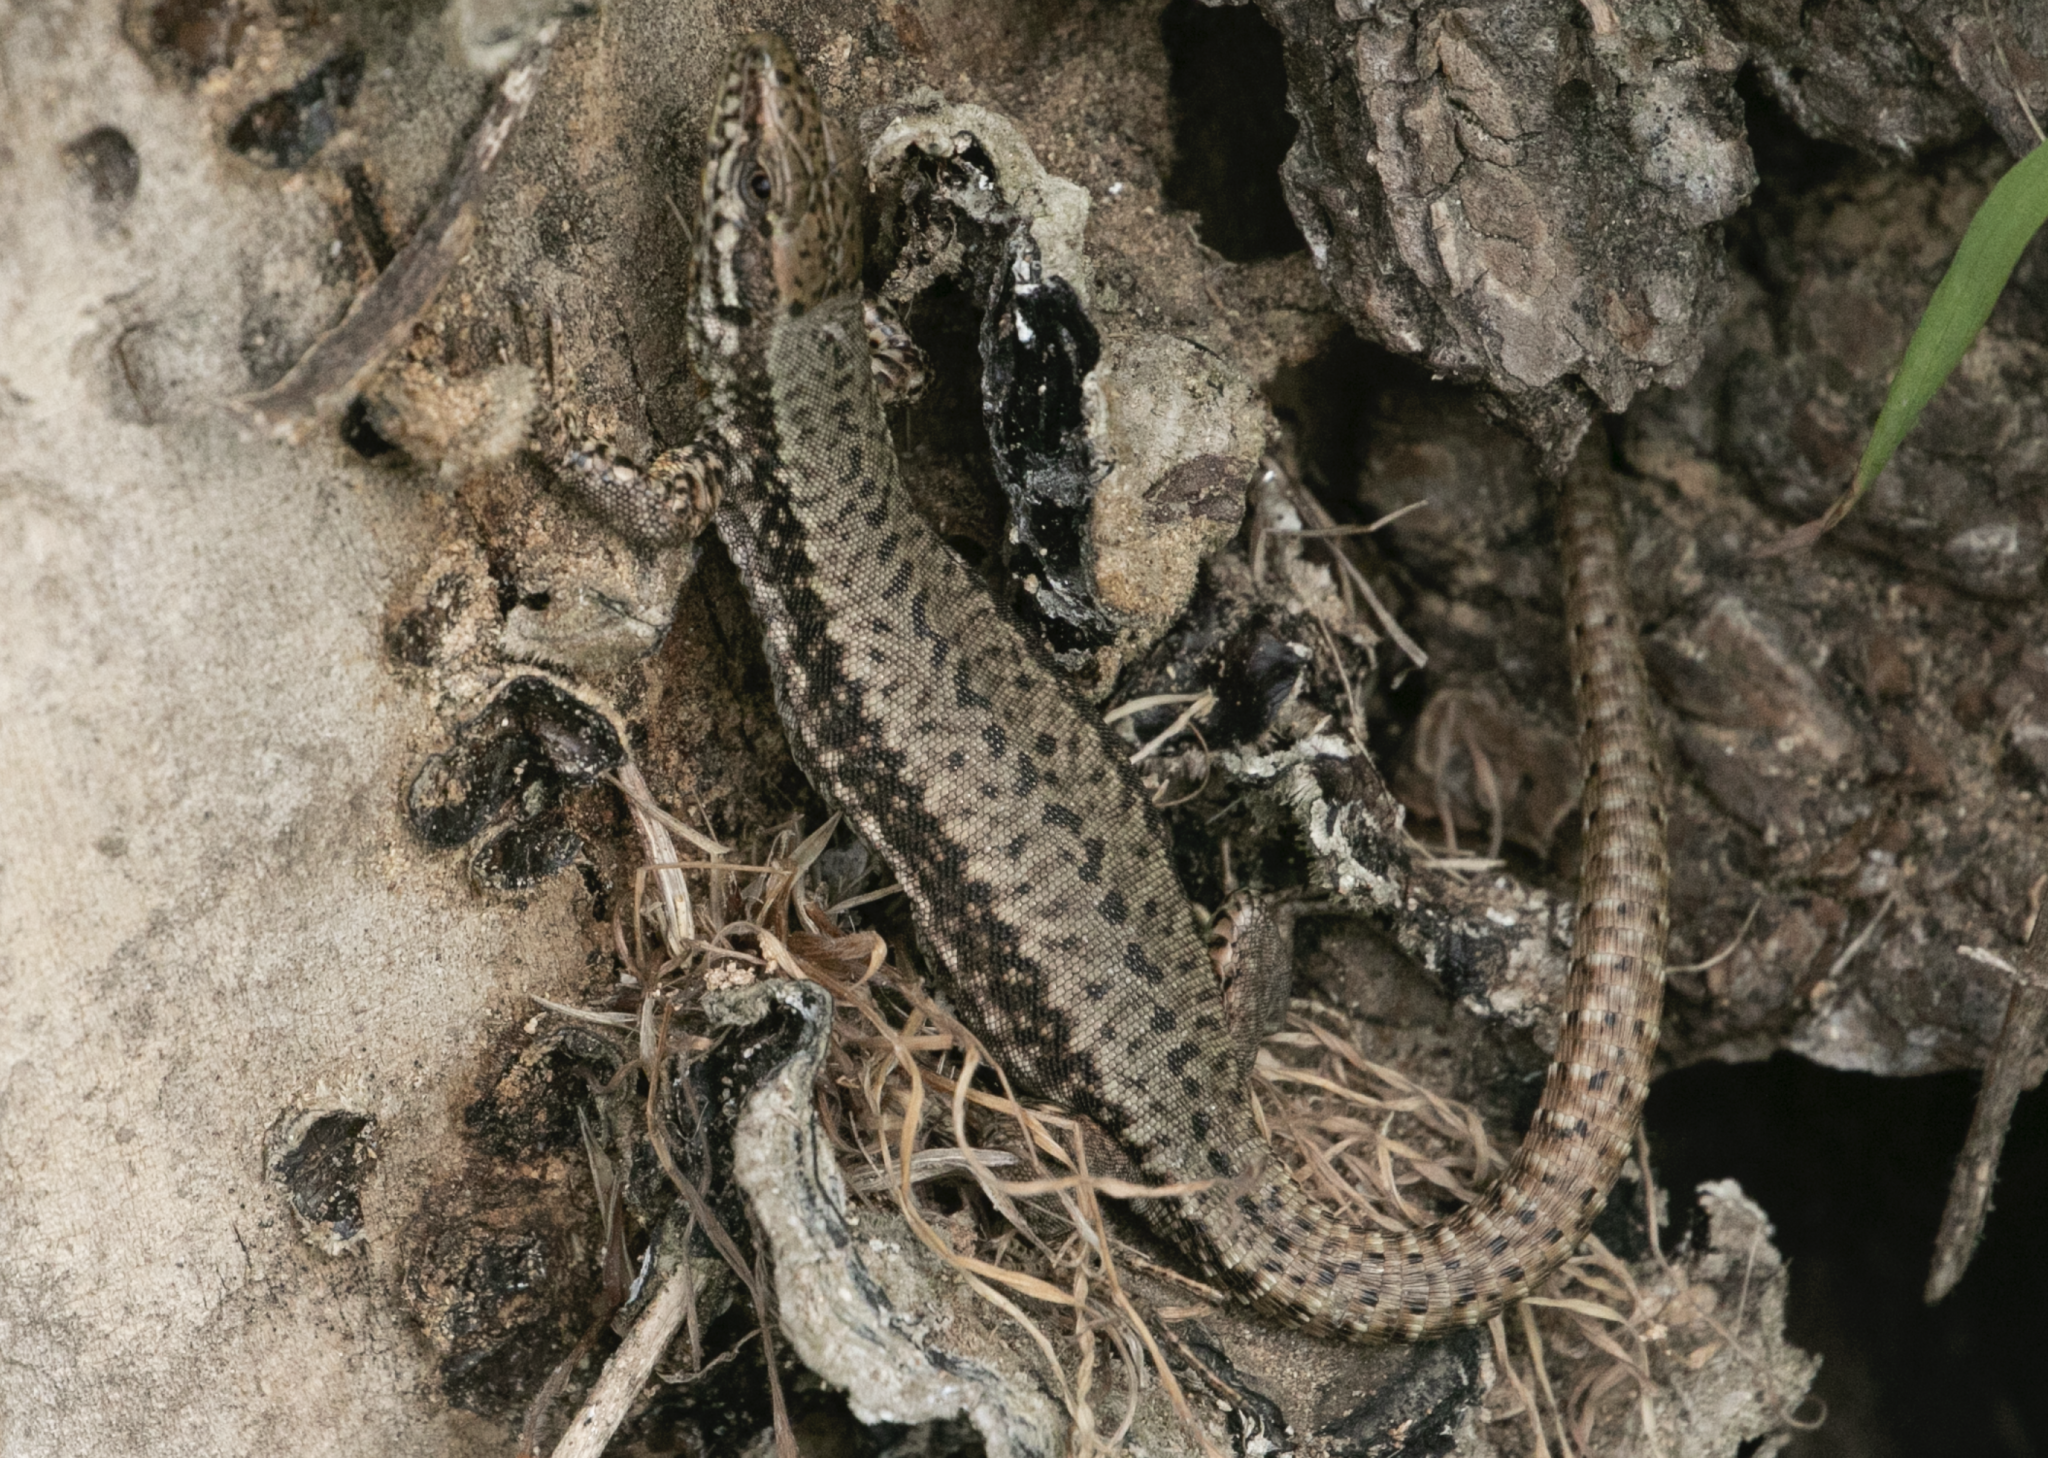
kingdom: Animalia
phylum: Chordata
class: Squamata
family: Lacertidae
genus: Podarcis
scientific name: Podarcis muralis
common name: Common wall lizard
